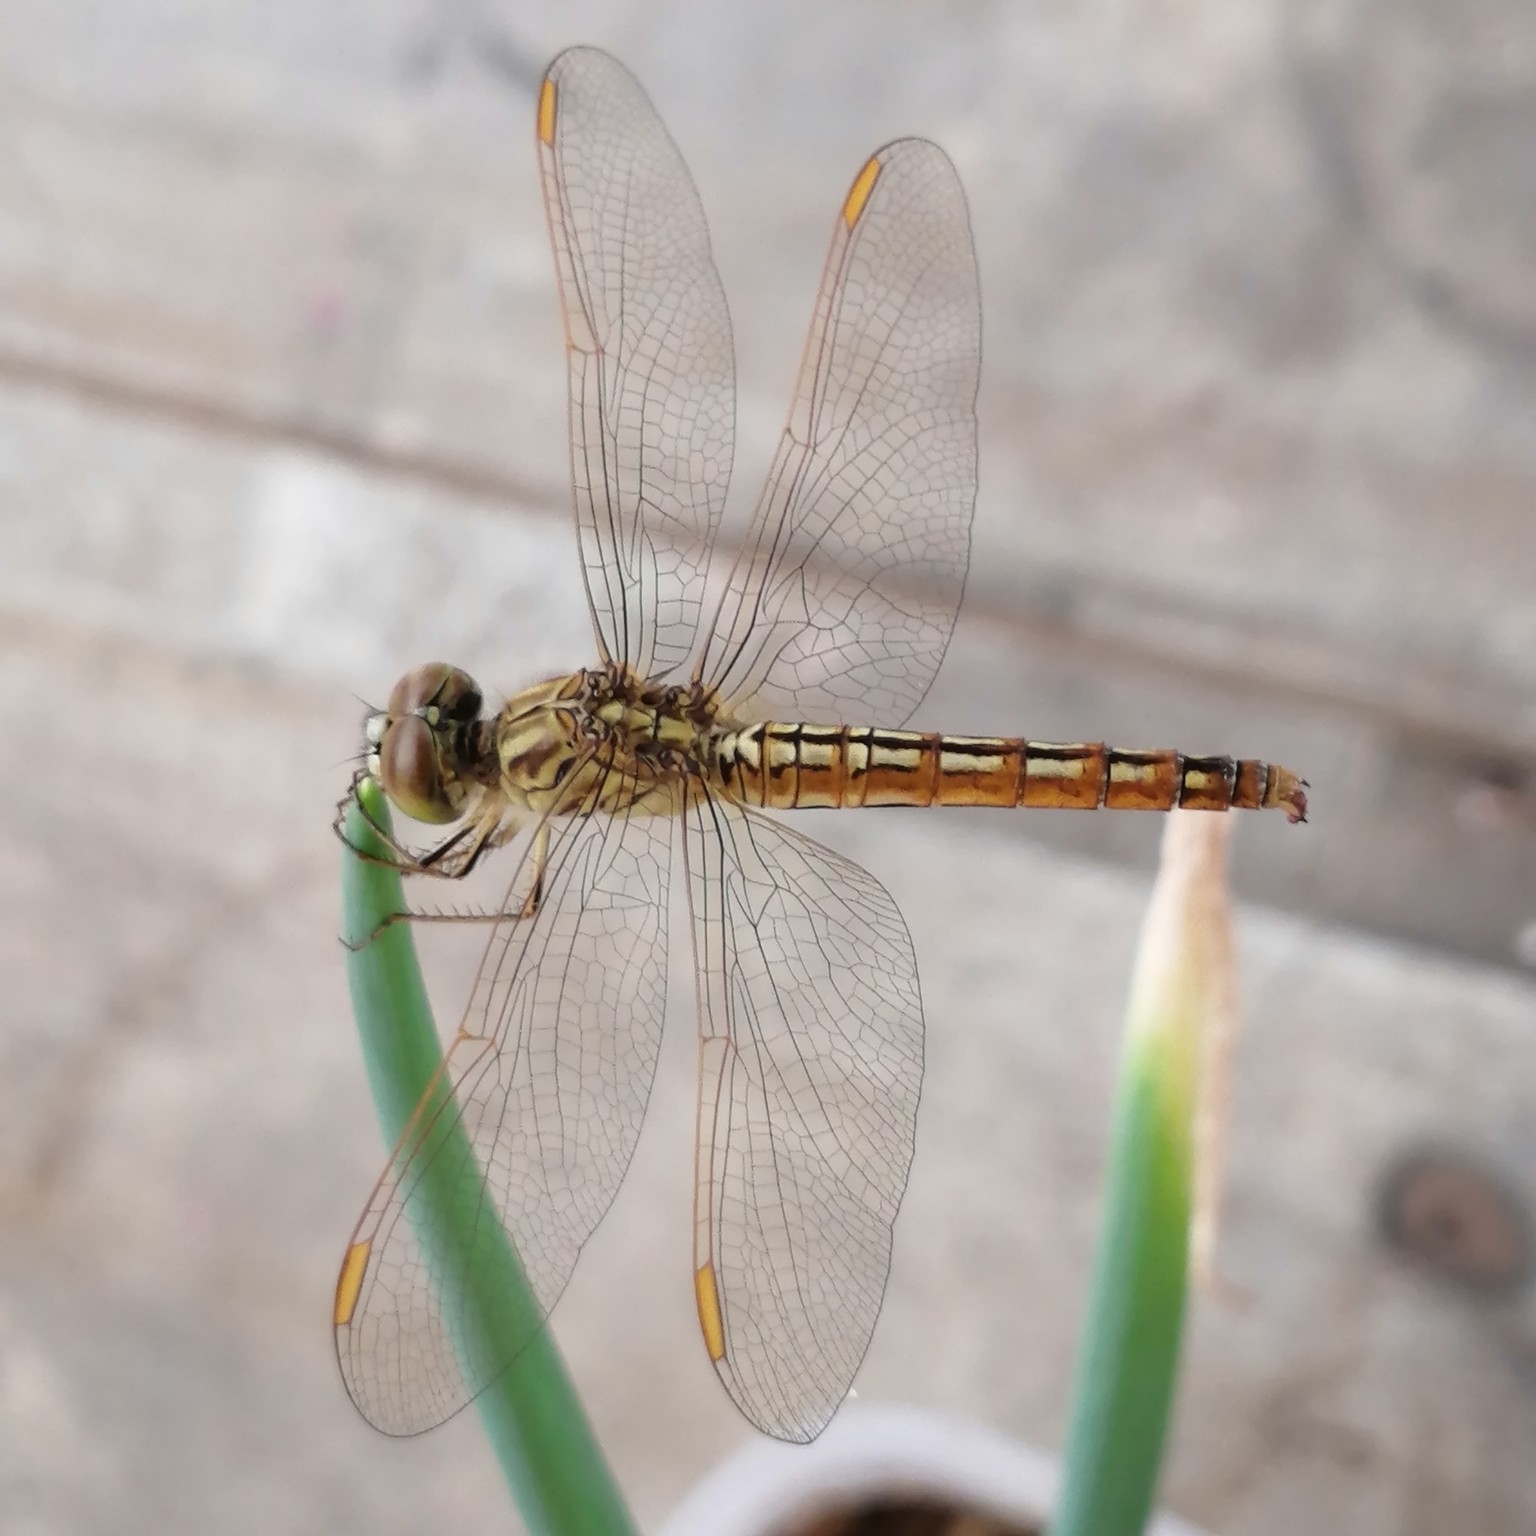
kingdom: Animalia
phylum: Arthropoda
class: Insecta
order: Odonata
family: Libellulidae
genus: Brachythemis
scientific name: Brachythemis contaminata
